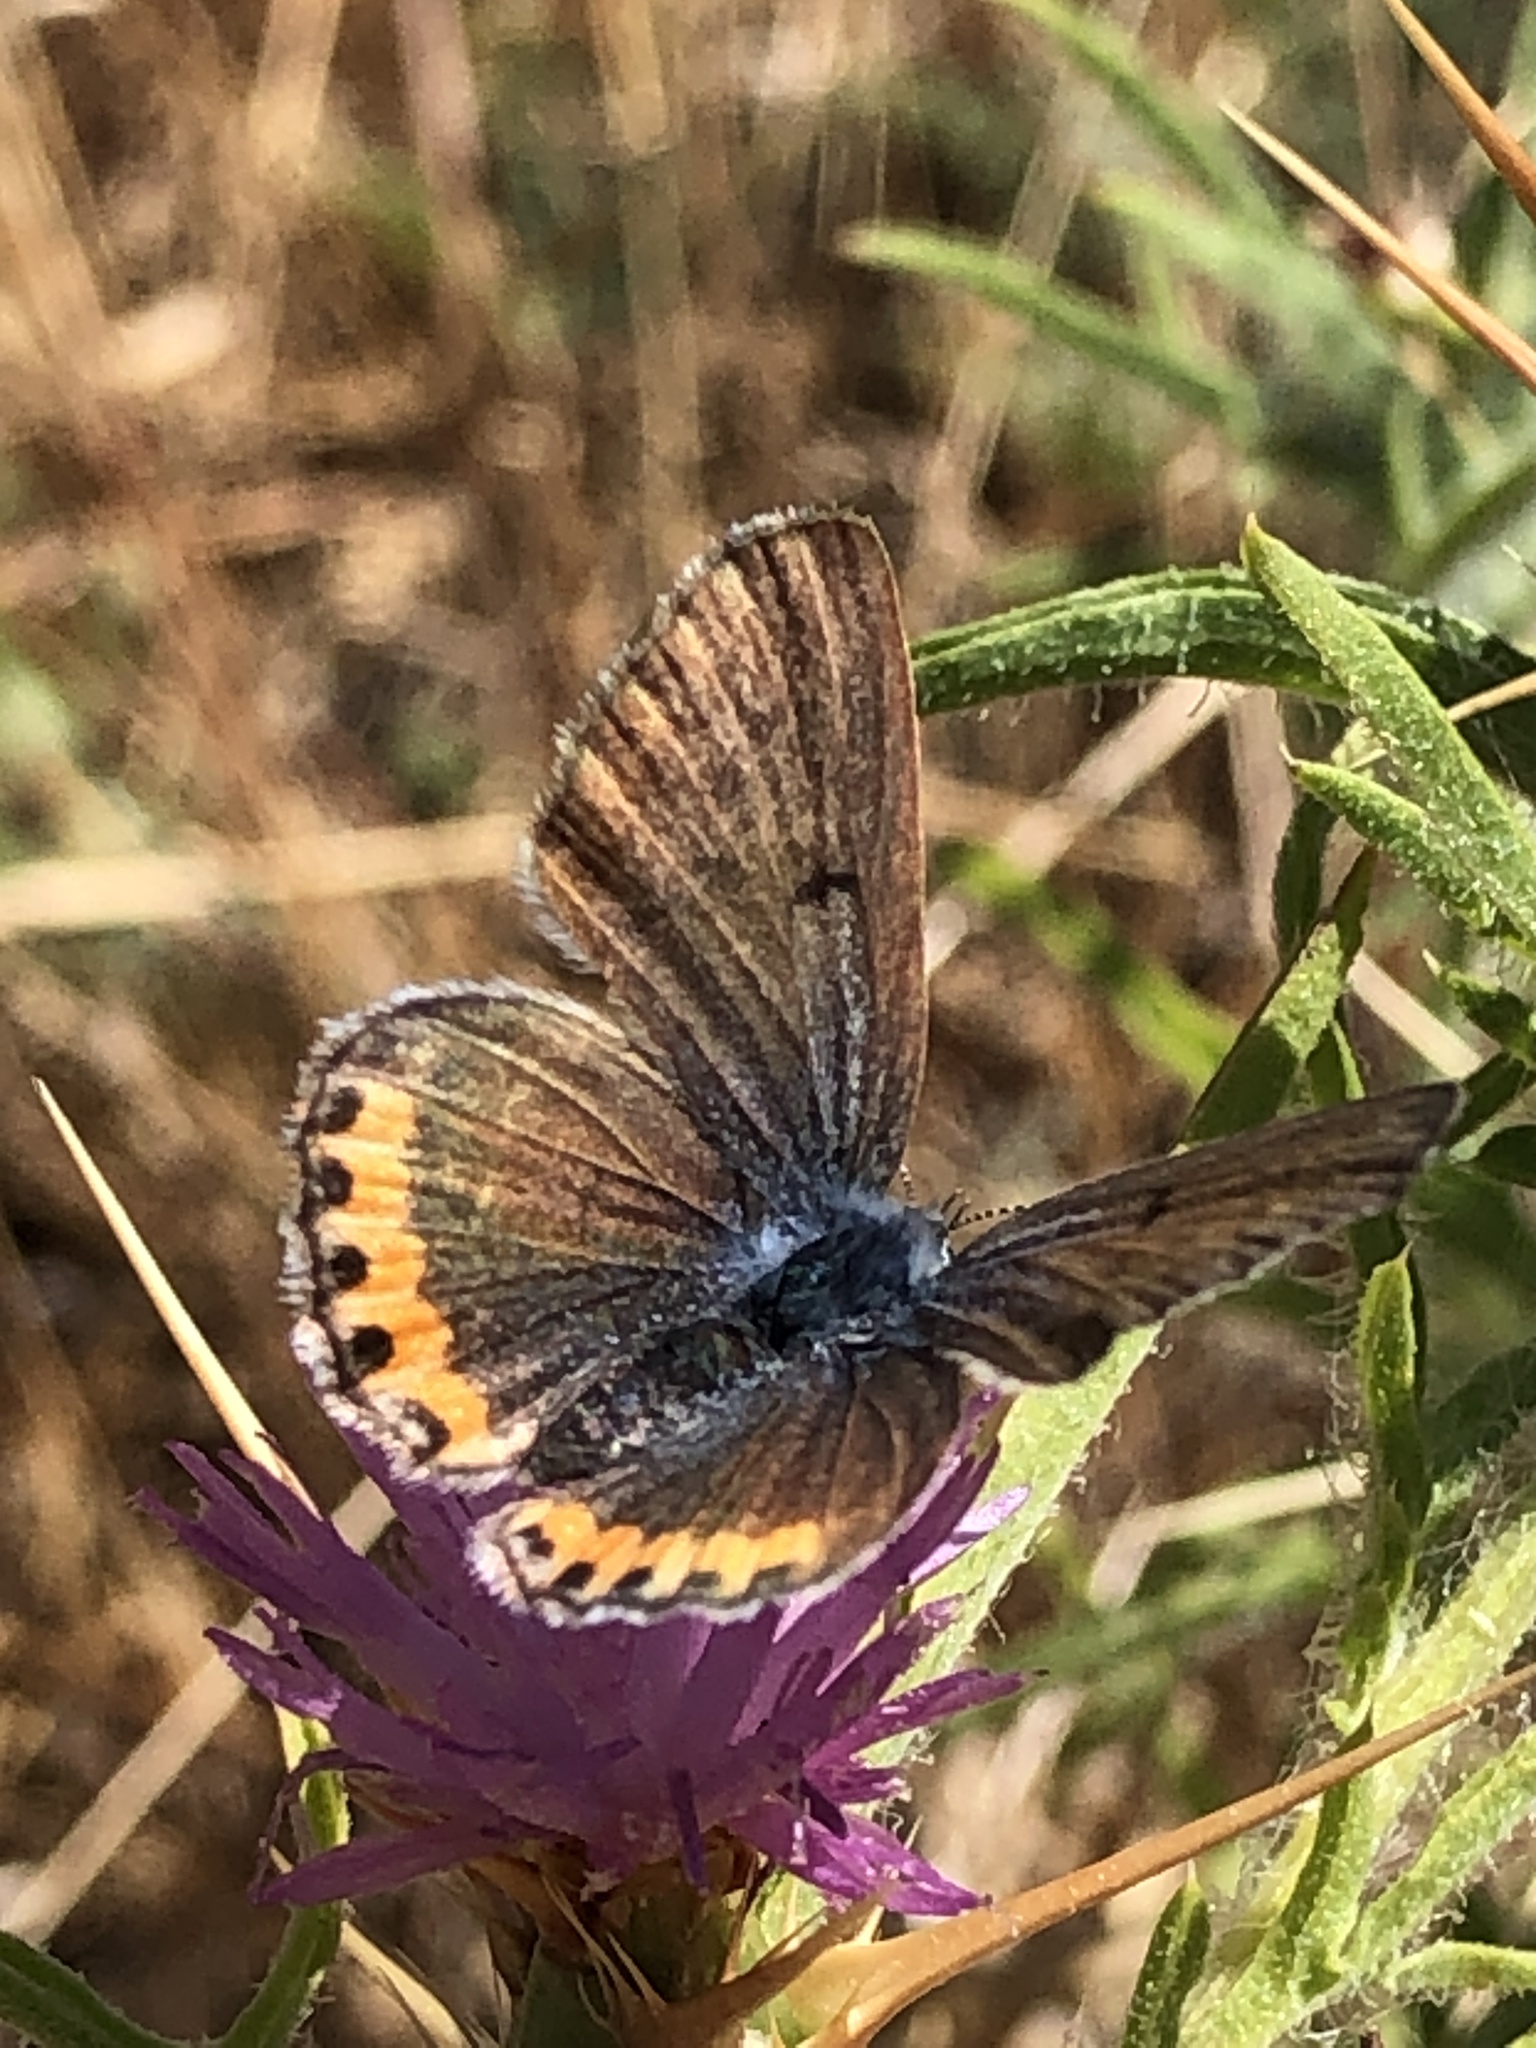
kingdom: Animalia
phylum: Arthropoda
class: Insecta
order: Lepidoptera
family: Lycaenidae
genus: Icaricia
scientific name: Icaricia acmon
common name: Acmon blue
